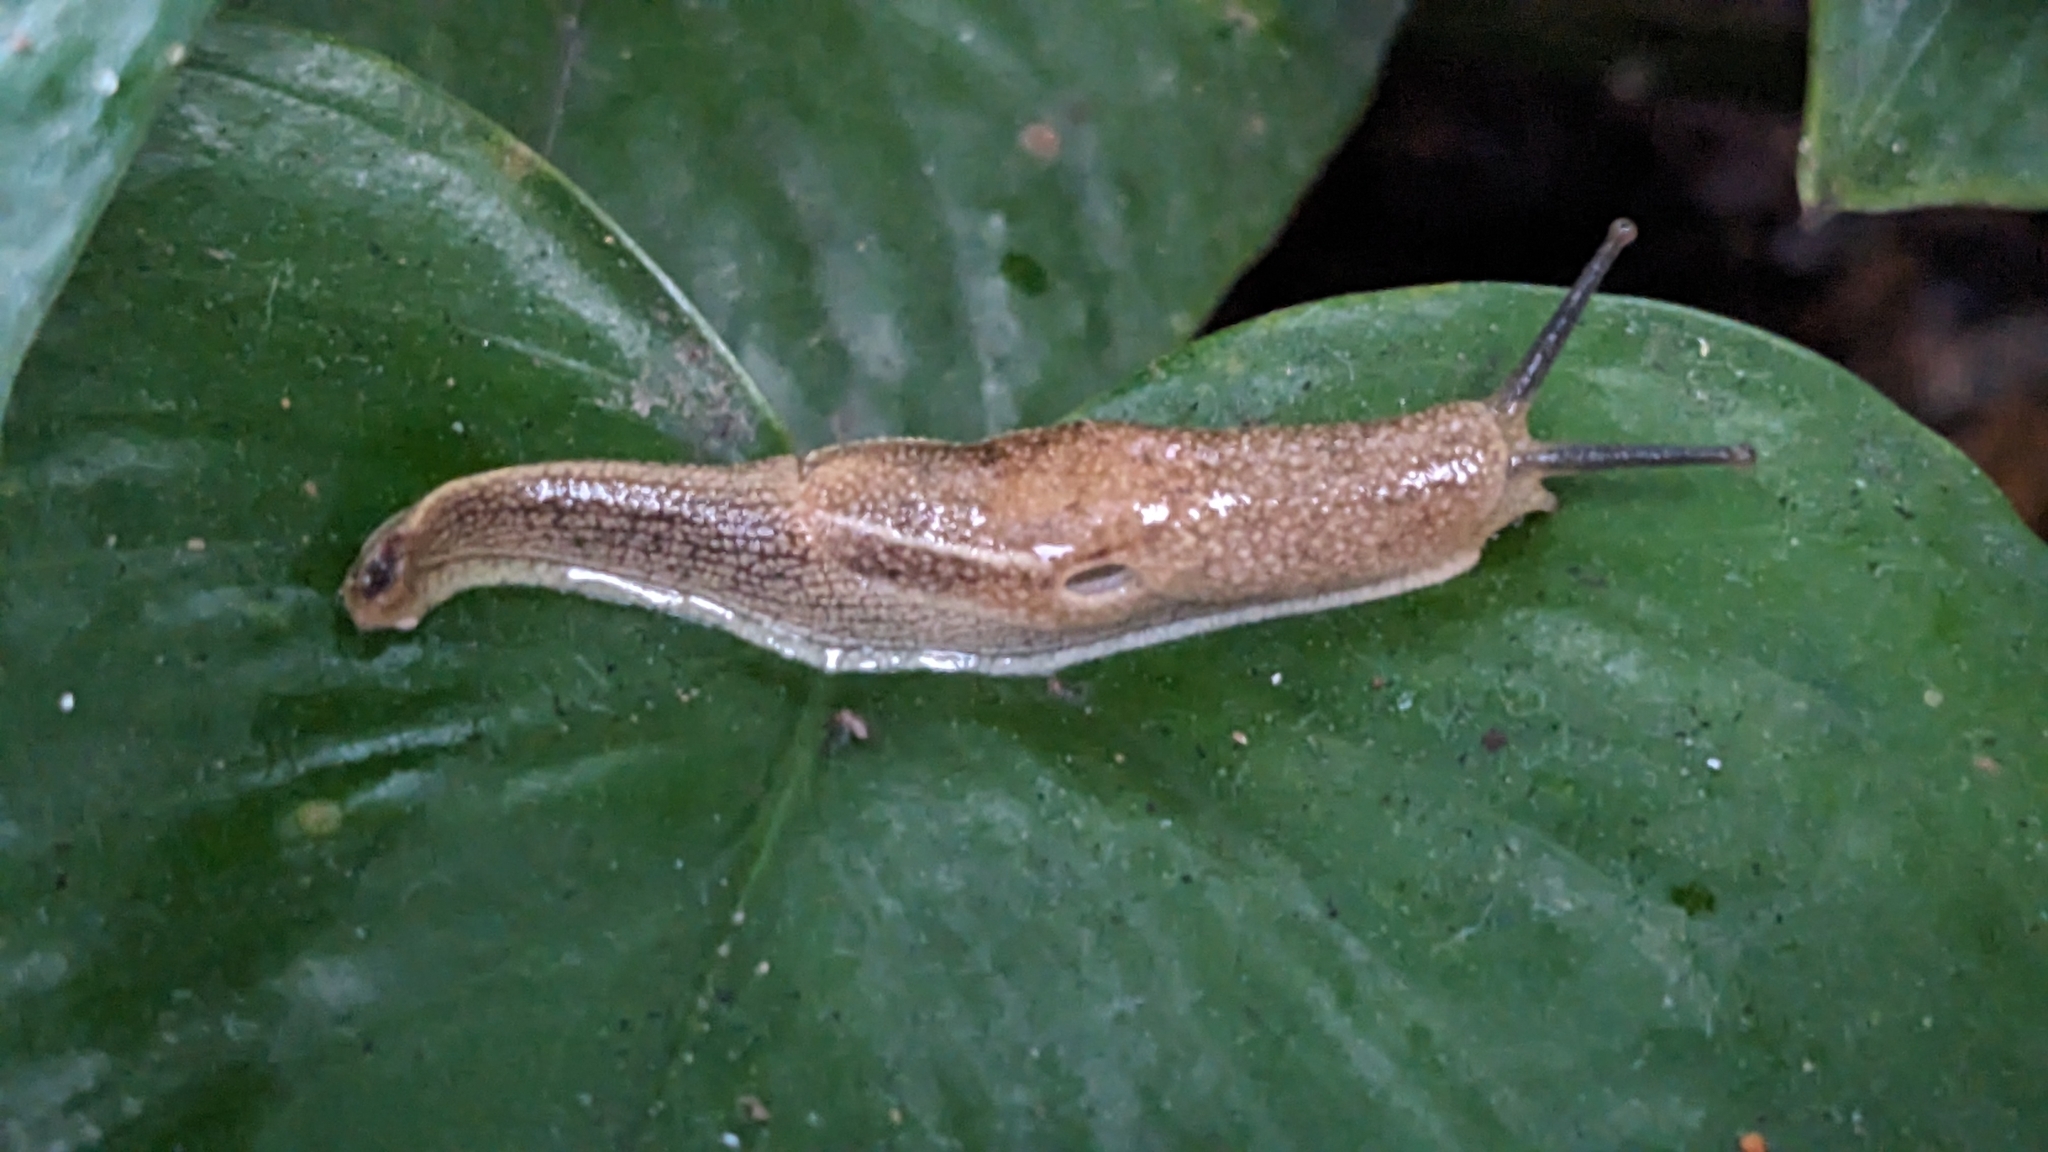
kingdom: Animalia
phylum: Mollusca
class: Gastropoda
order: Stylommatophora
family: Ariophantidae
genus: Mariaella
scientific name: Mariaella dussumieri
